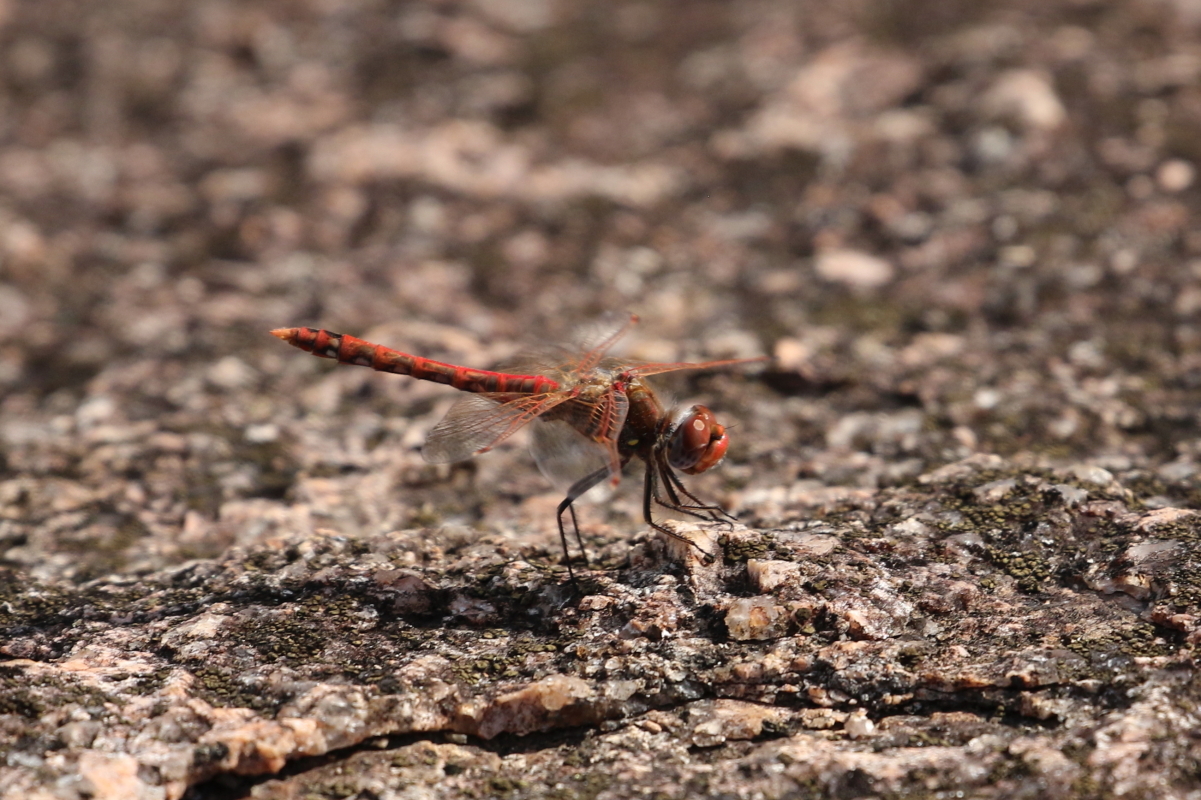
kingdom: Animalia
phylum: Arthropoda
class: Insecta
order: Odonata
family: Libellulidae
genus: Sympetrum
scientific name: Sympetrum corruptum
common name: Variegated meadowhawk
